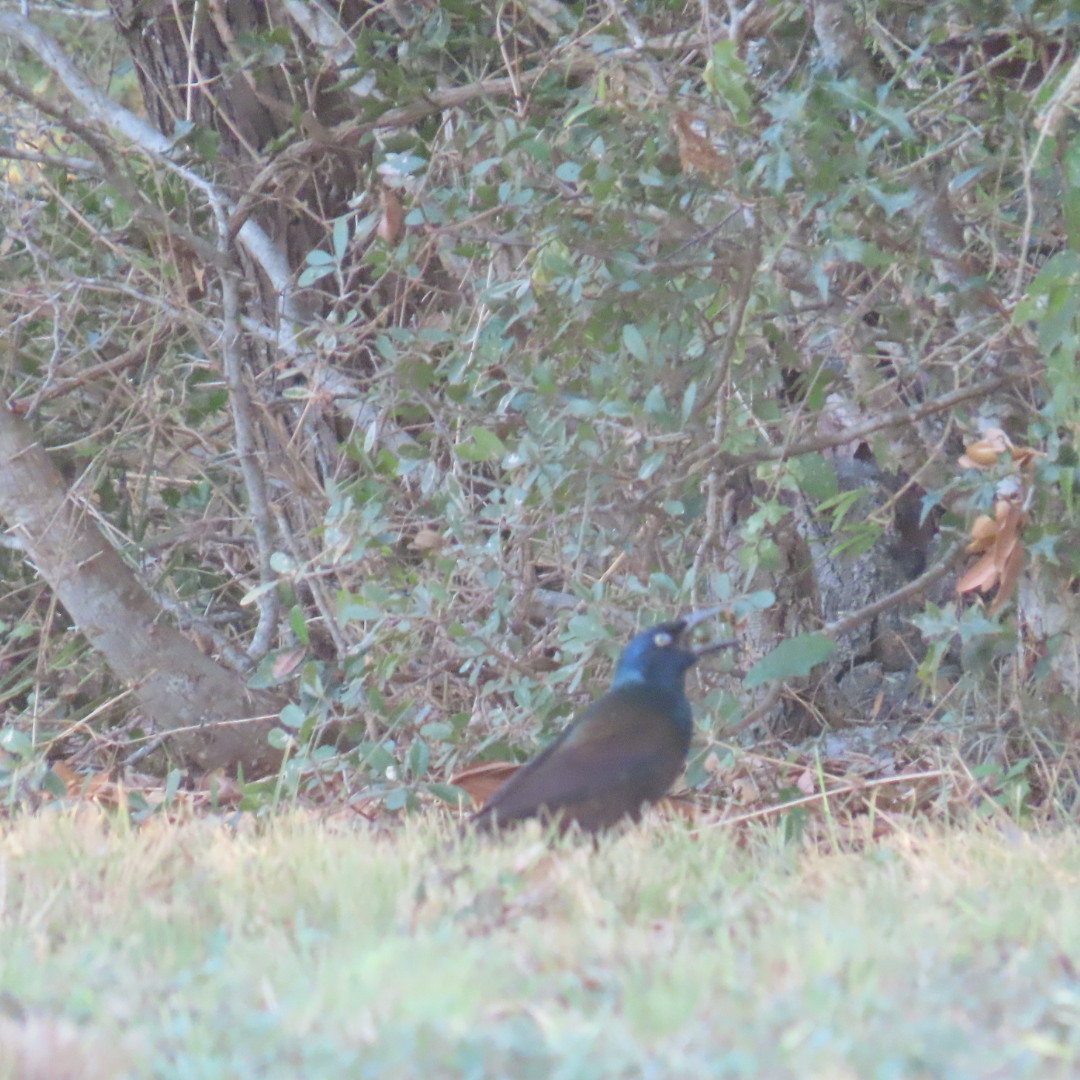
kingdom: Animalia
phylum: Chordata
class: Aves
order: Passeriformes
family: Icteridae
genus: Quiscalus
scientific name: Quiscalus quiscula
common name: Common grackle
